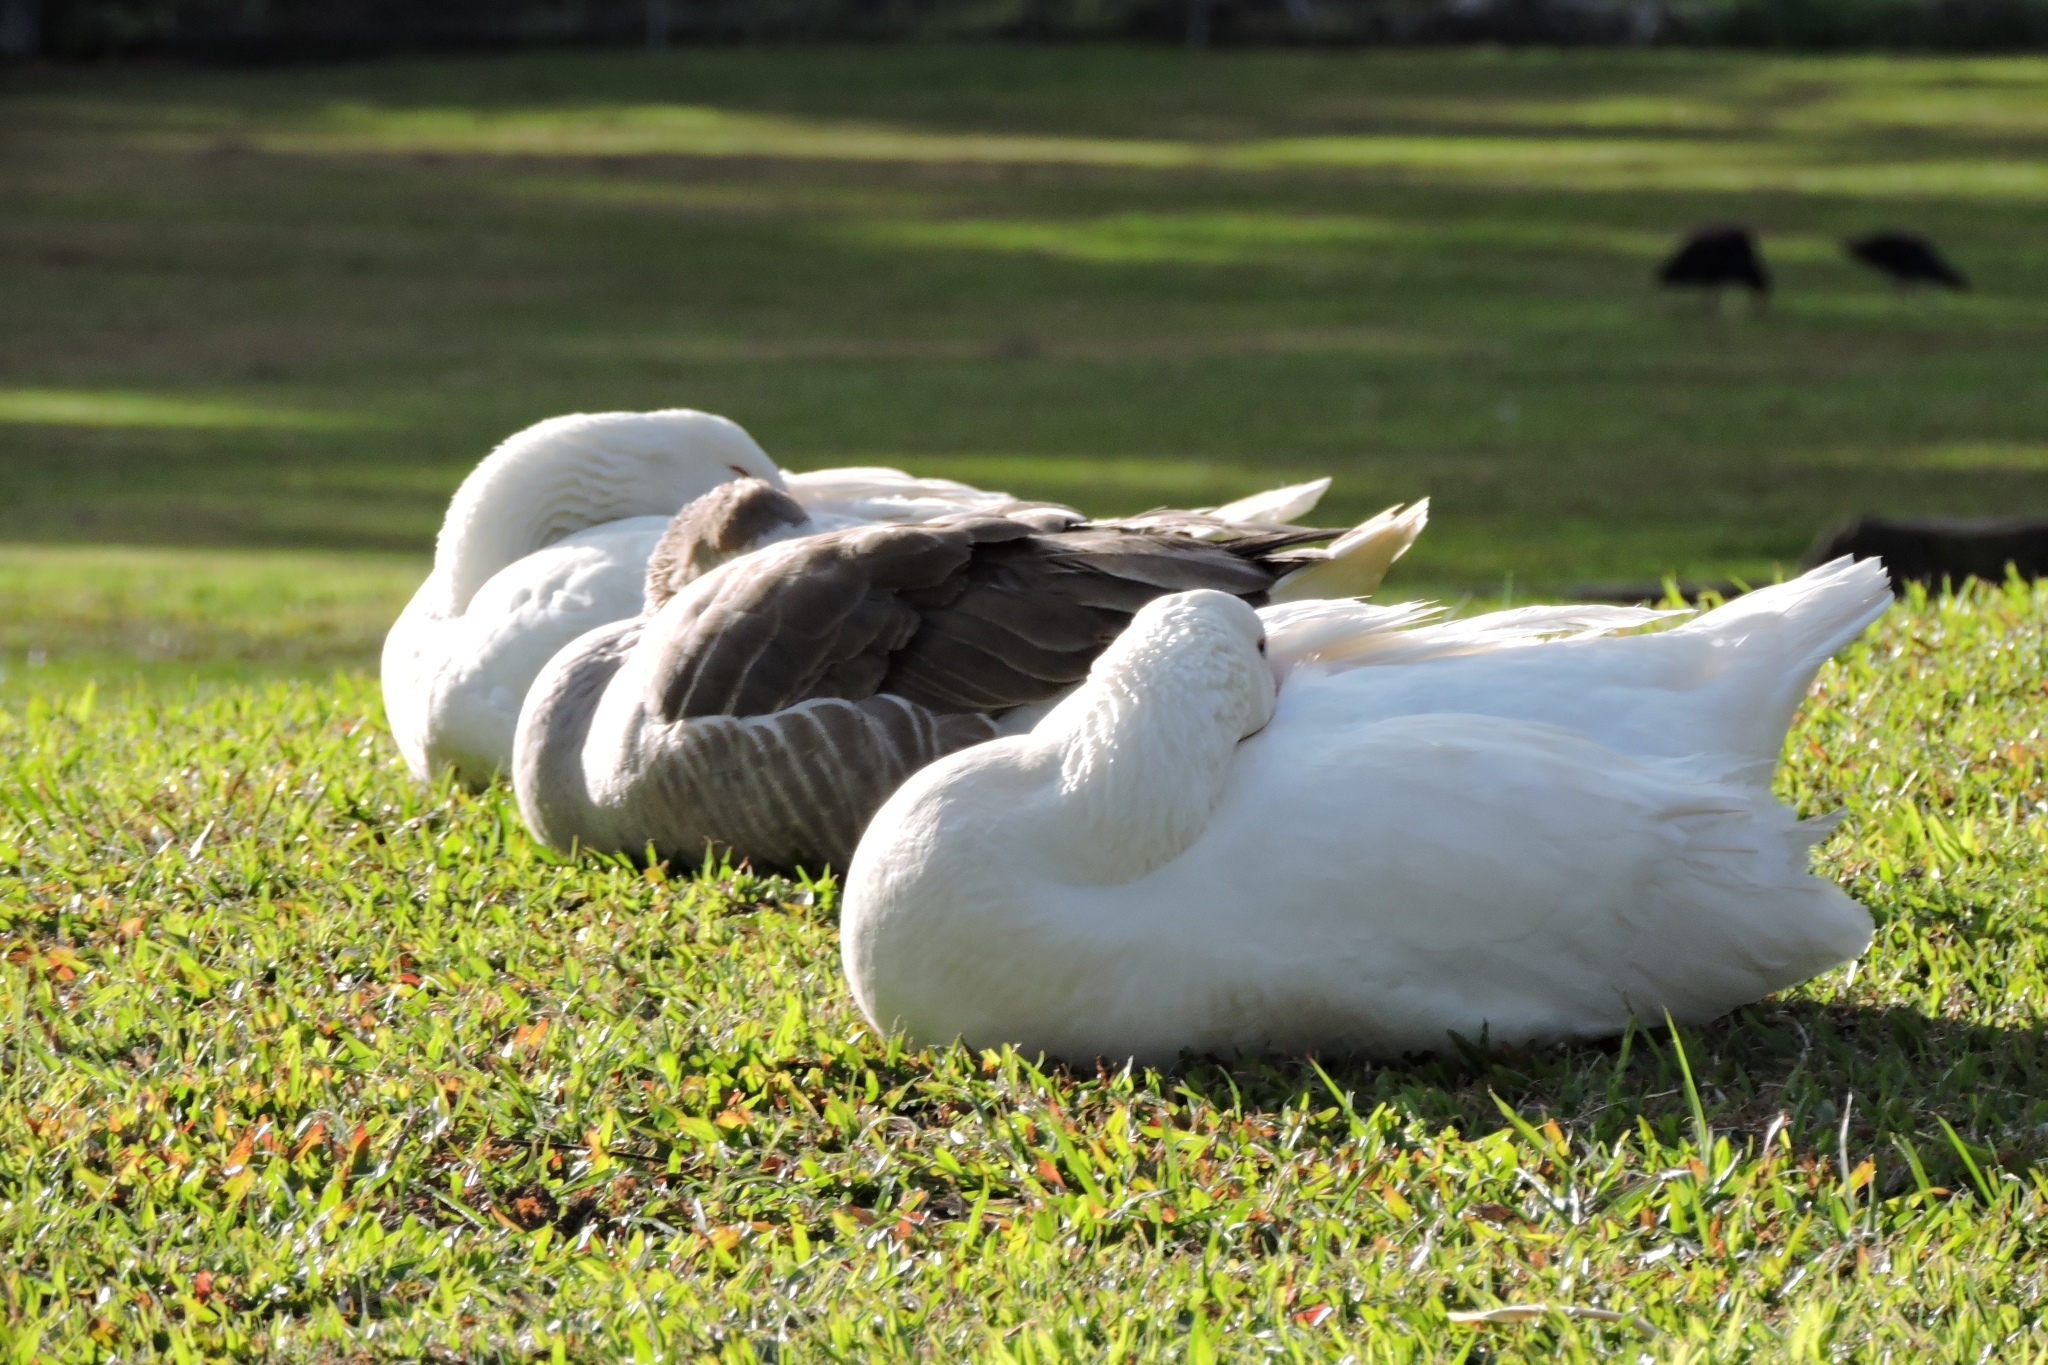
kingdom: Animalia
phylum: Chordata
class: Aves
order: Anseriformes
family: Anatidae
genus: Anser
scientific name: Anser anser
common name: Greylag goose
